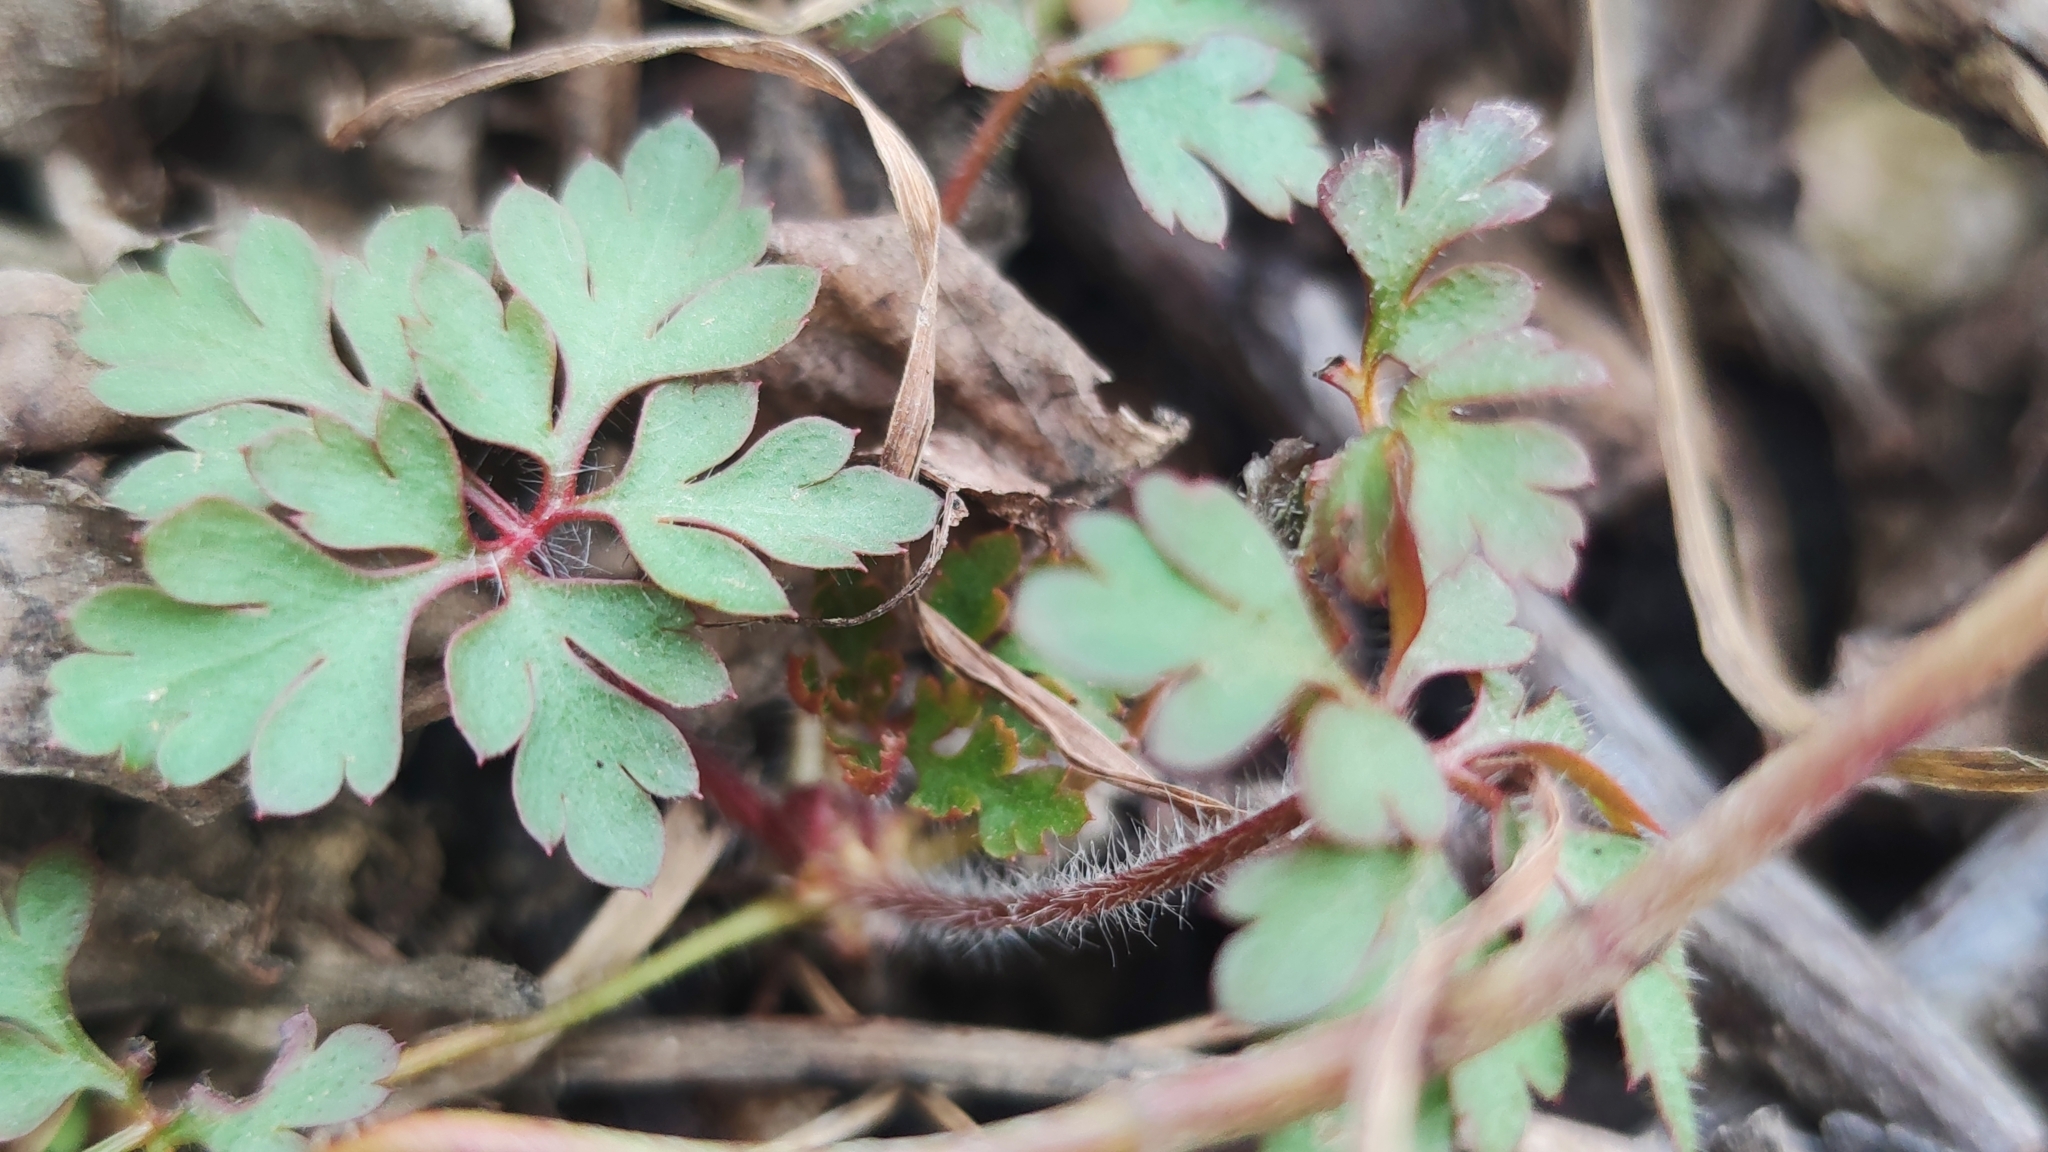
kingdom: Plantae
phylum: Tracheophyta
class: Magnoliopsida
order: Geraniales
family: Geraniaceae
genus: Geranium
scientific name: Geranium robertianum
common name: Herb-robert
